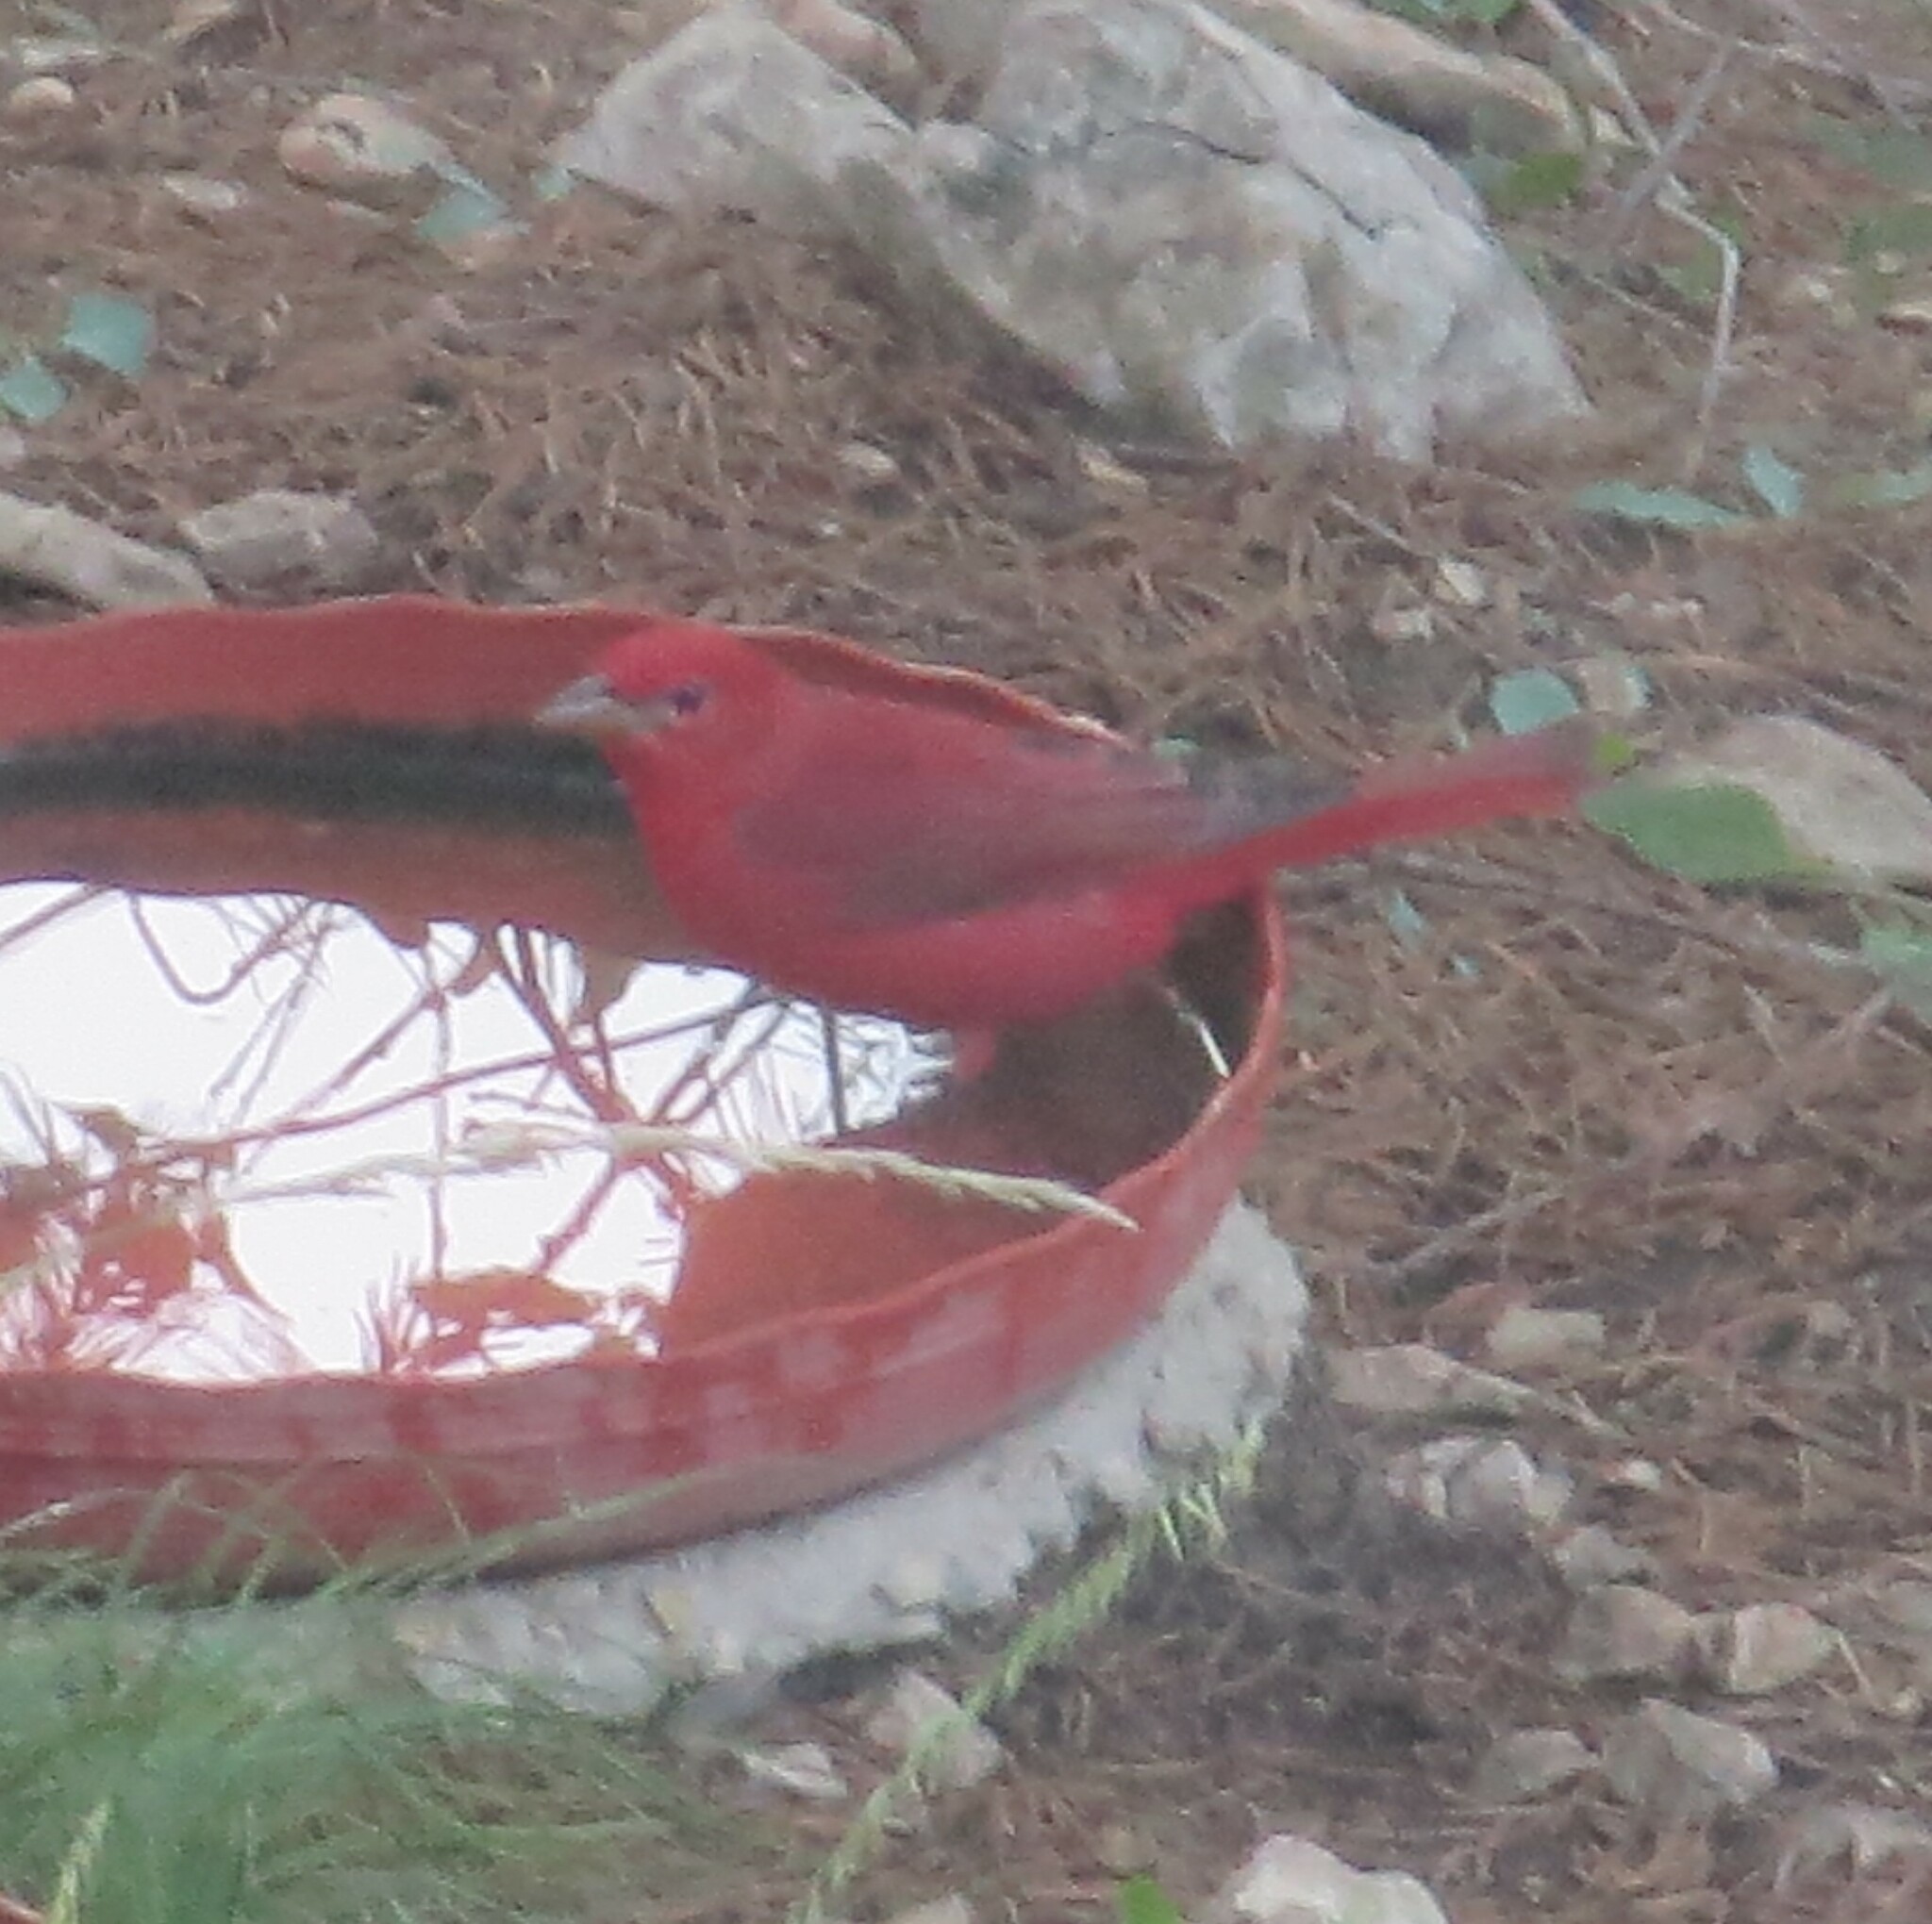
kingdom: Animalia
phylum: Chordata
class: Aves
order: Passeriformes
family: Cardinalidae
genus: Piranga
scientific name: Piranga rubra
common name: Summer tanager
